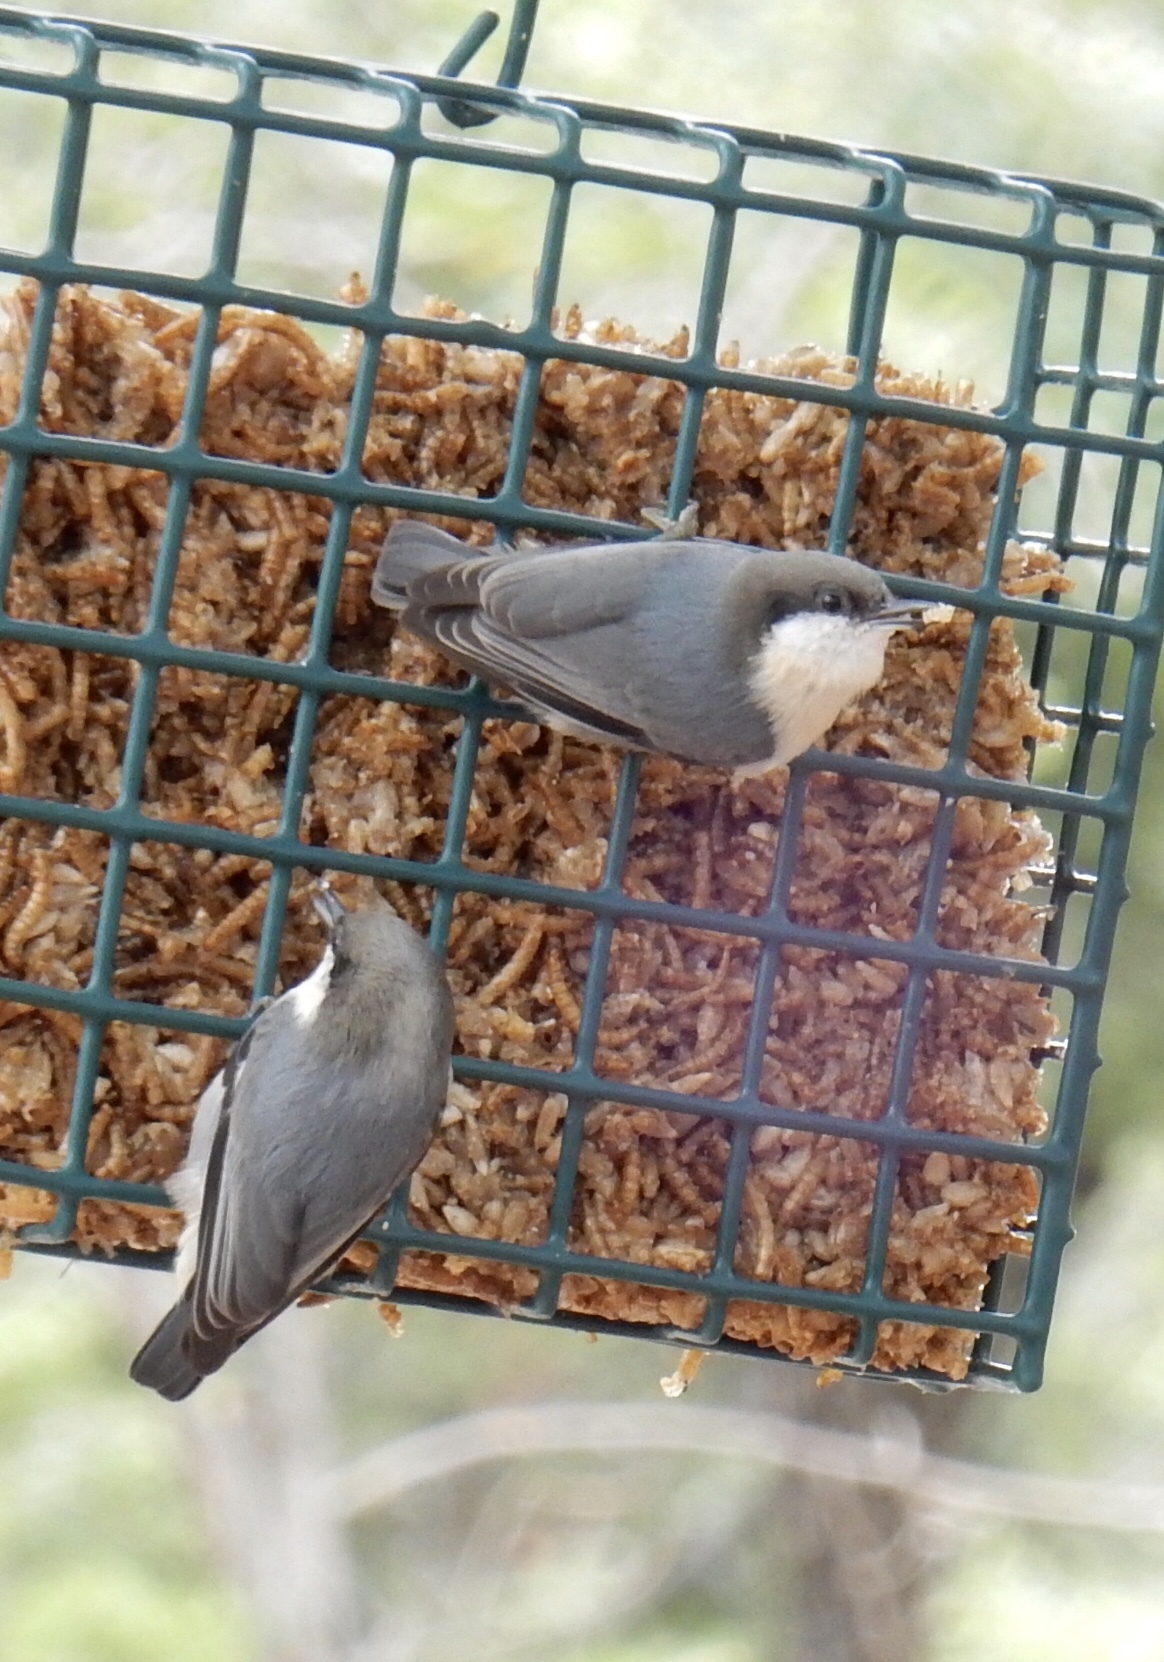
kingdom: Animalia
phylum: Chordata
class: Aves
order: Passeriformes
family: Sittidae
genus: Sitta
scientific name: Sitta pygmaea
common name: Pygmy nuthatch
